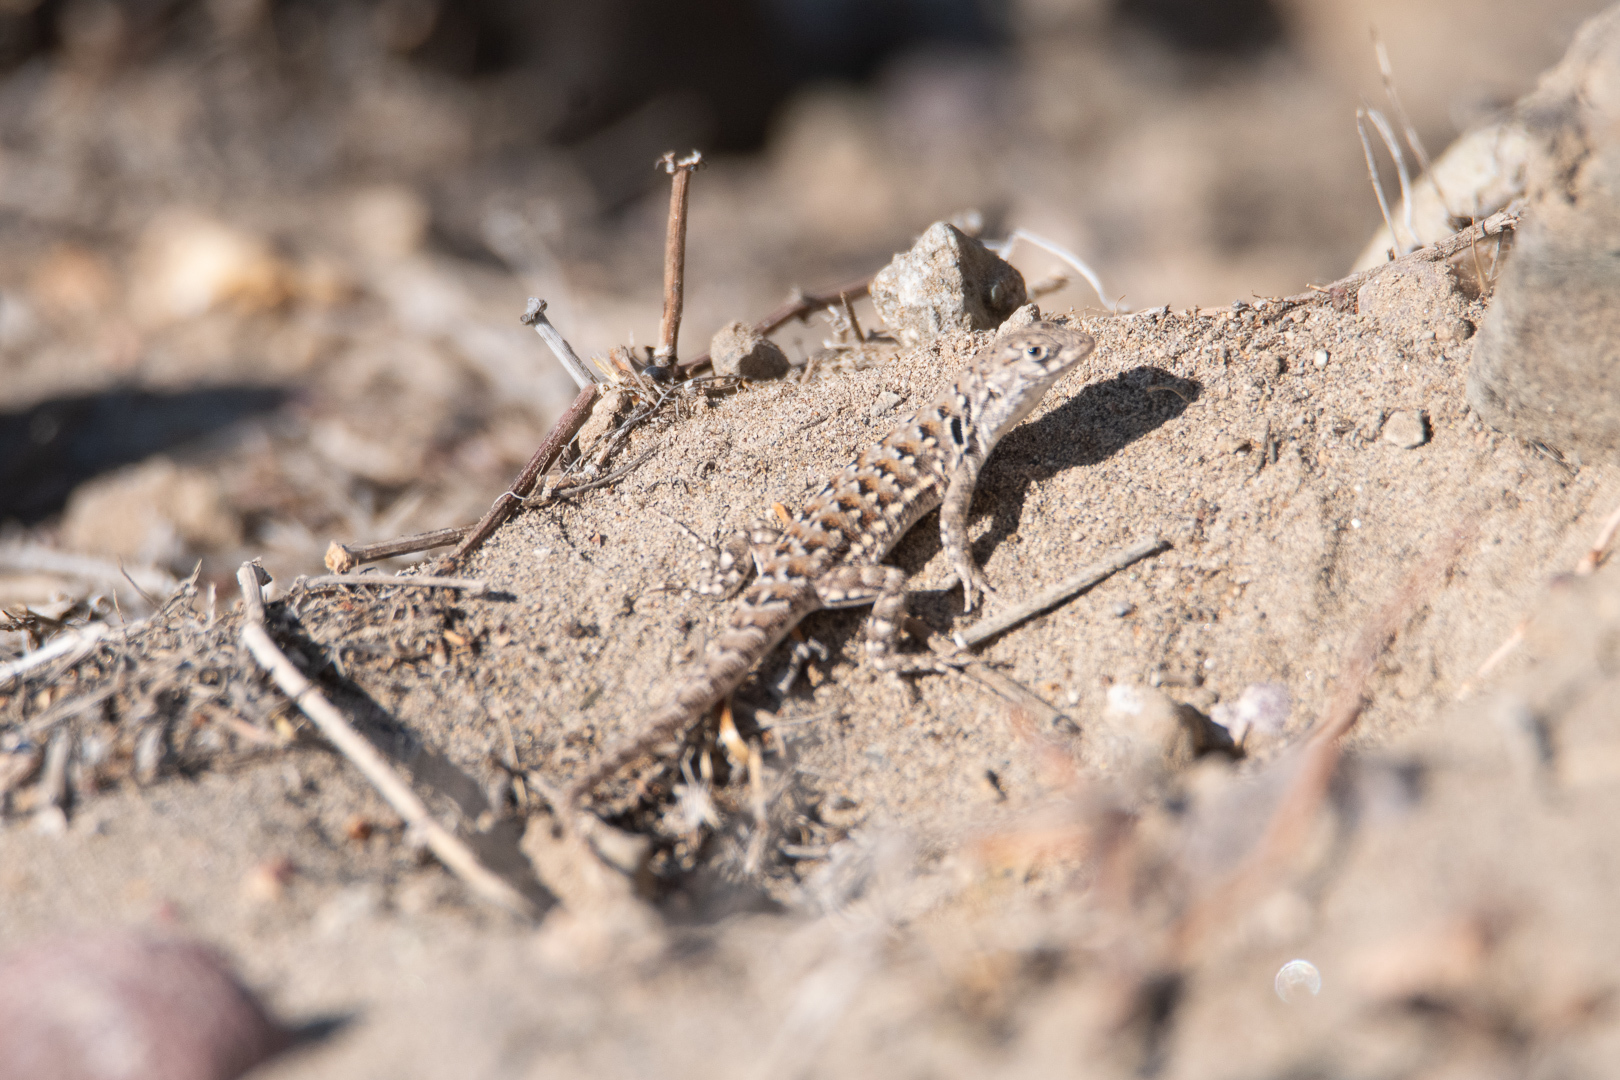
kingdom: Animalia
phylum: Chordata
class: Squamata
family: Liolaemidae
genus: Liolaemus
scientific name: Liolaemus atacamensis
